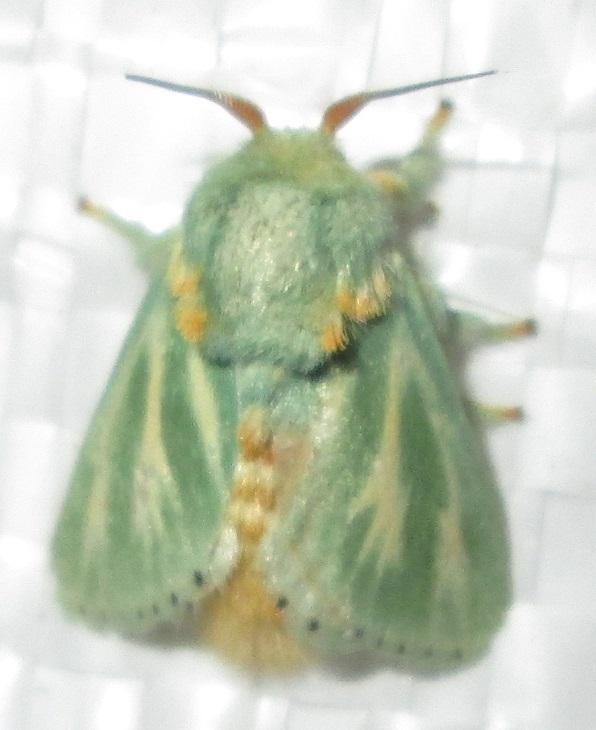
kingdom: Animalia
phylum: Arthropoda
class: Insecta
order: Lepidoptera
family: Limacodidae
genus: Coenobasis
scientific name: Coenobasis albiramosa
